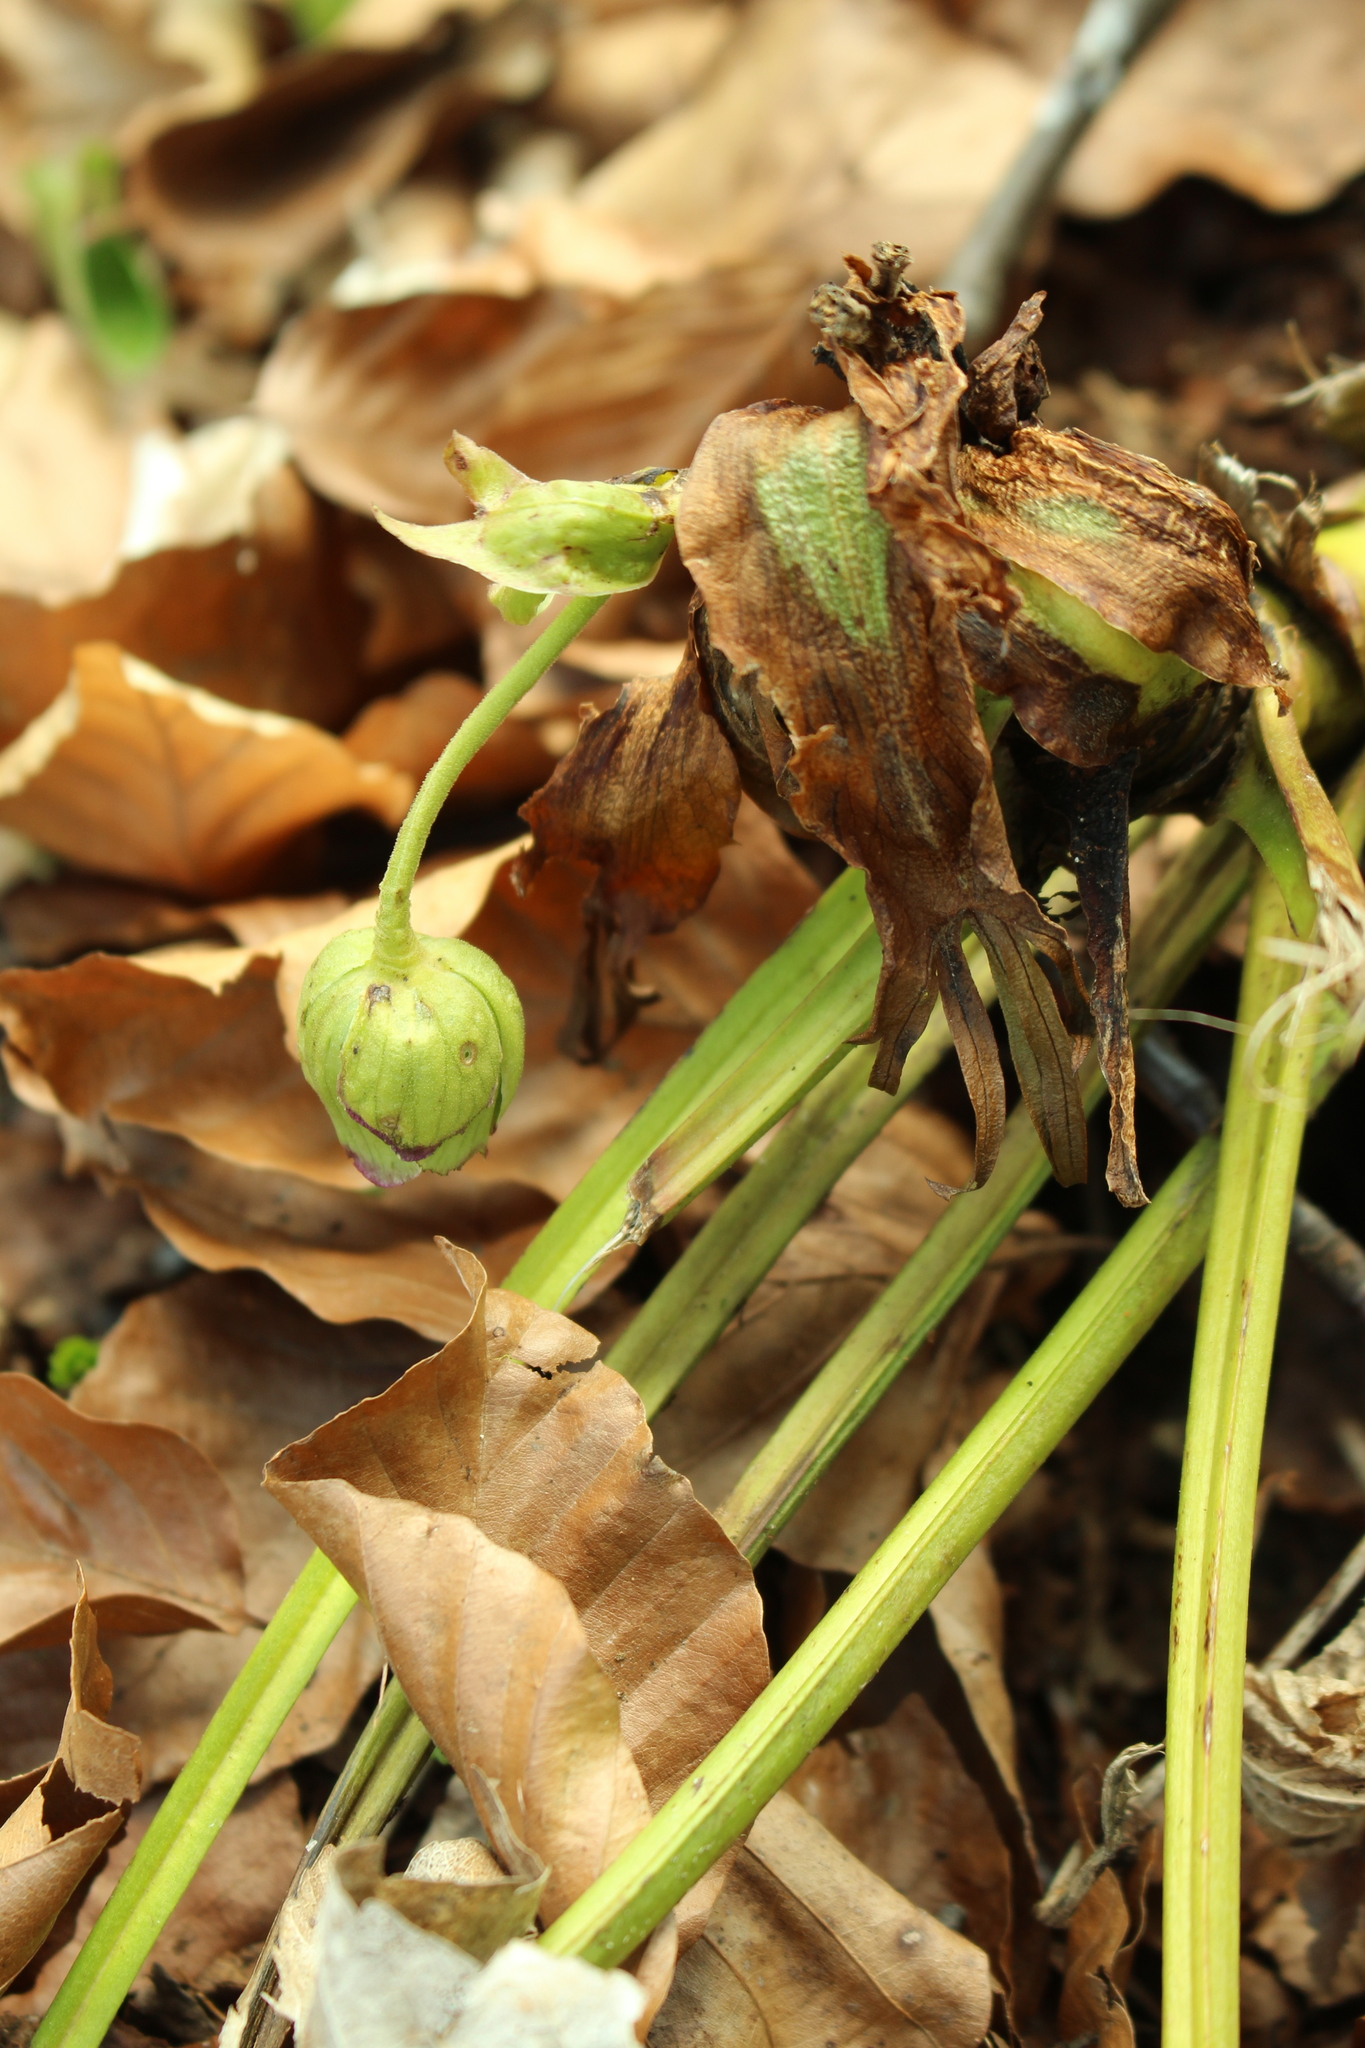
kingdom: Plantae
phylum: Tracheophyta
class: Magnoliopsida
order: Ranunculales
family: Ranunculaceae
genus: Helleborus
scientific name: Helleborus foetidus
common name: Stinking hellebore
